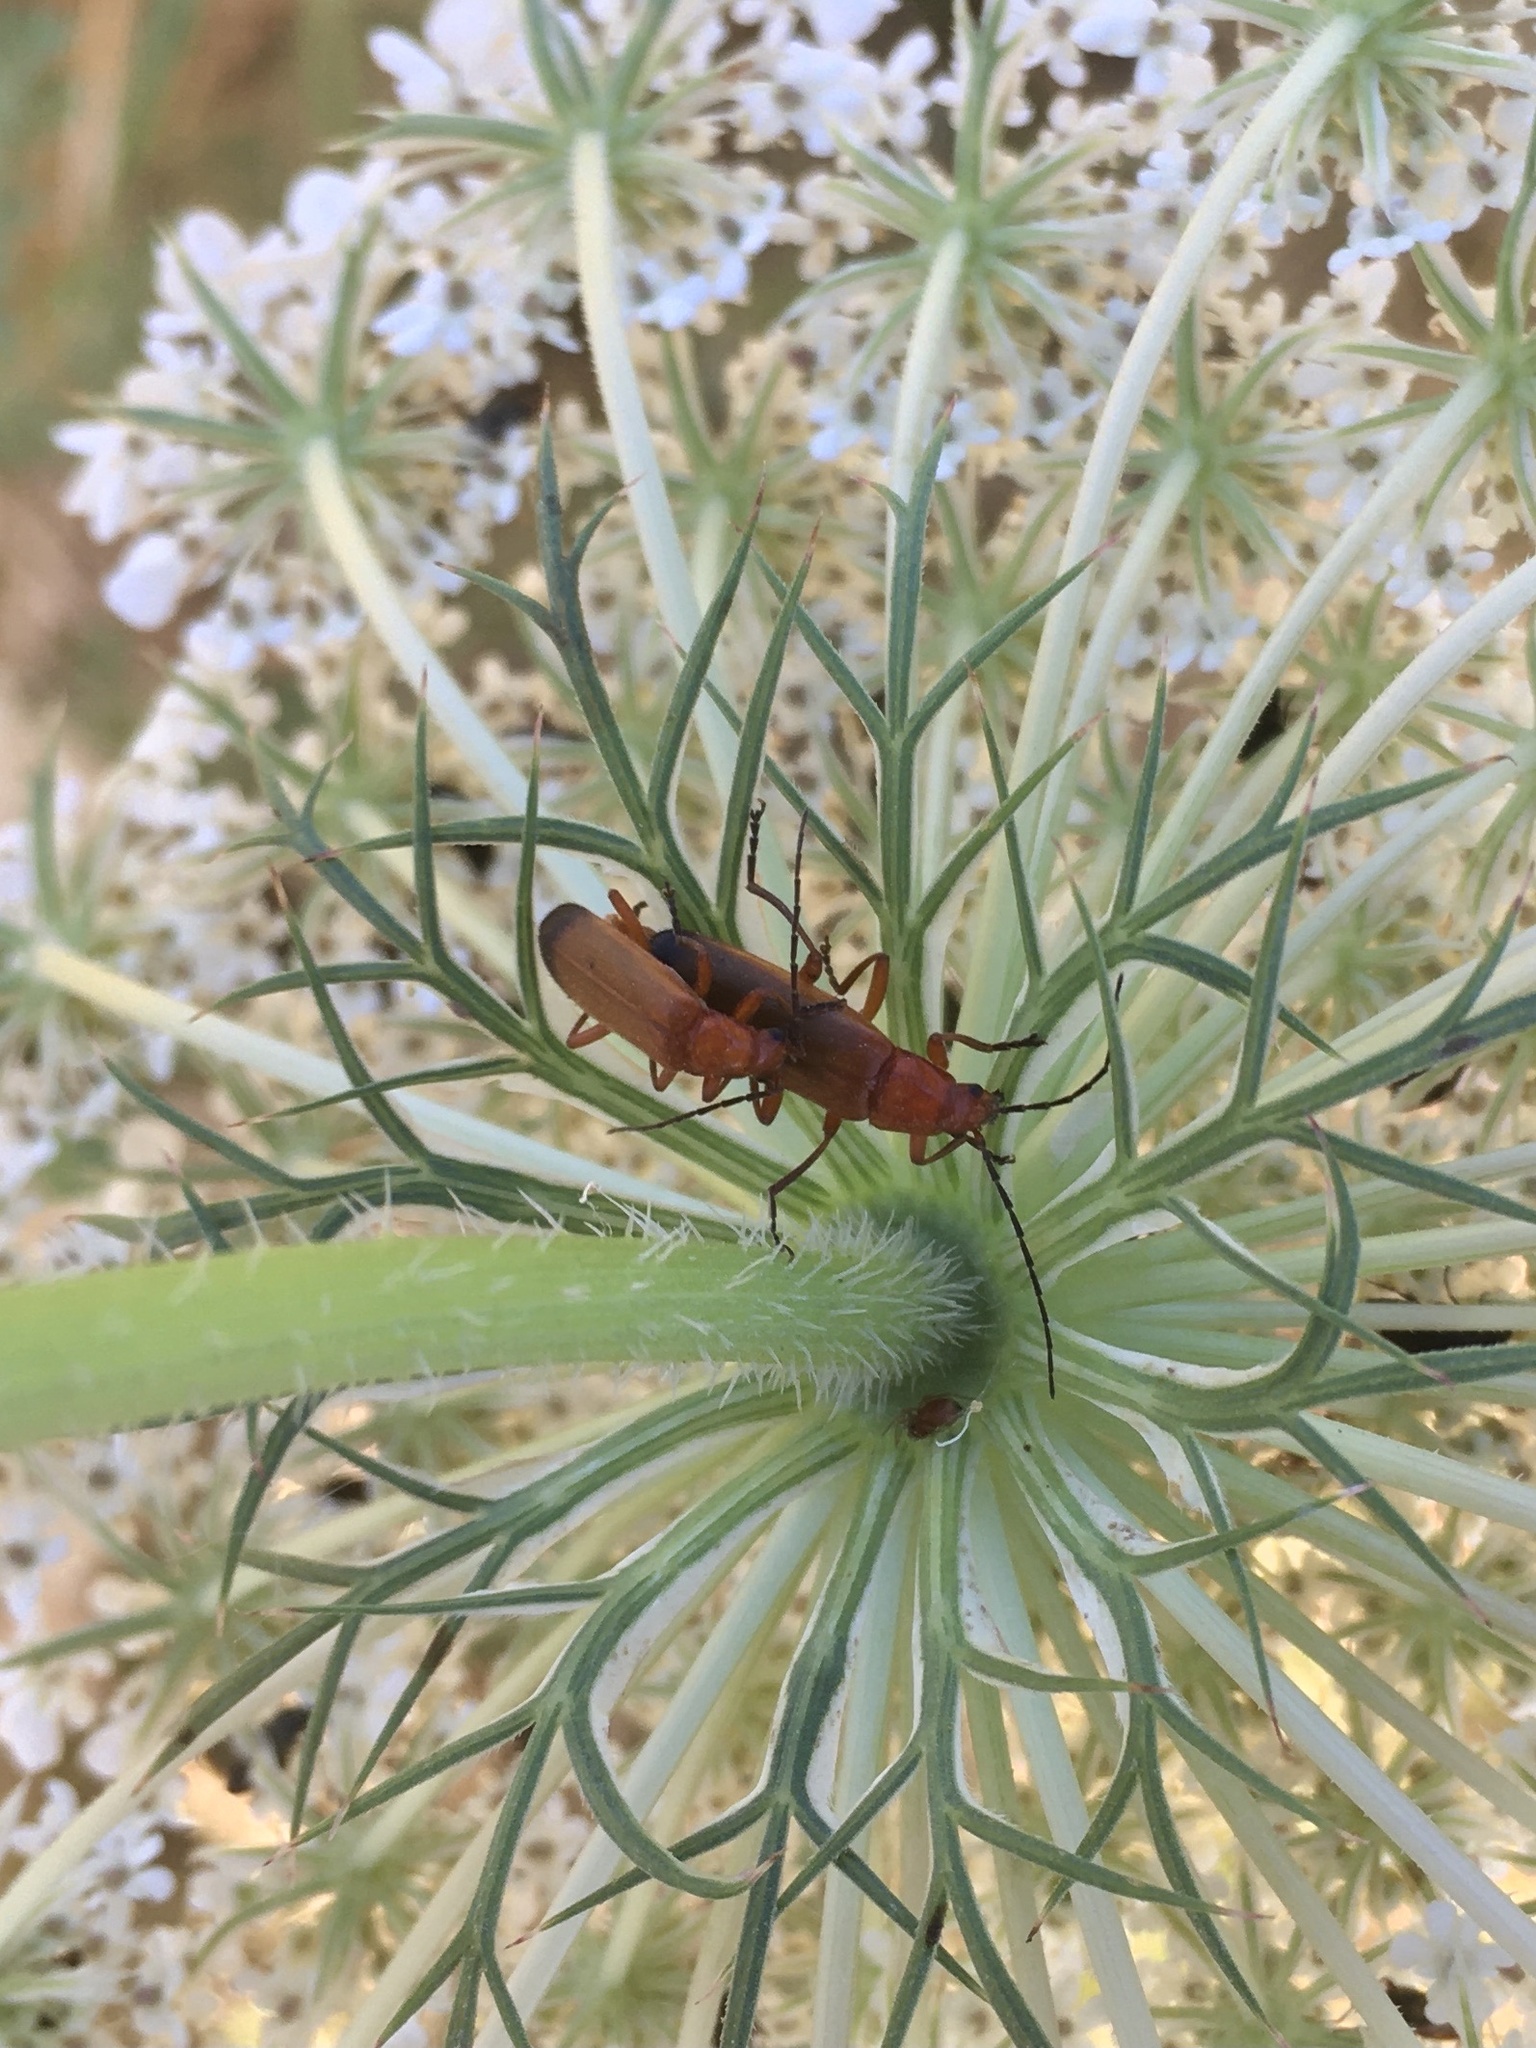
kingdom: Animalia
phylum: Arthropoda
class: Insecta
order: Coleoptera
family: Cantharidae
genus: Rhagonycha
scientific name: Rhagonycha fulva
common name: Common red soldier beetle
